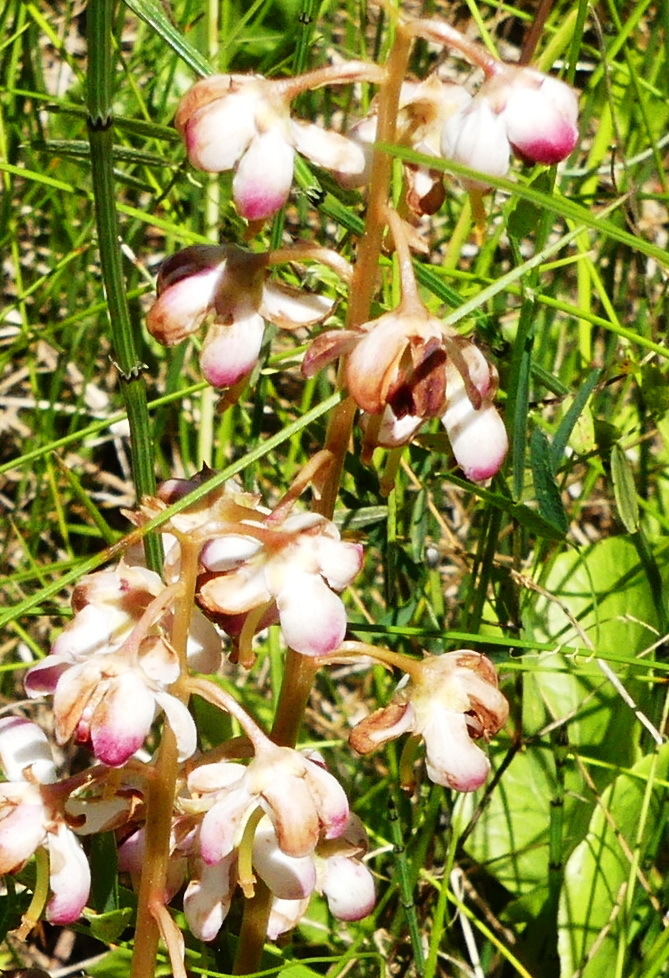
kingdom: Plantae
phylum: Tracheophyta
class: Magnoliopsida
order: Ericales
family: Ericaceae
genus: Pyrola
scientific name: Pyrola asarifolia
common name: Bog wintergreen
